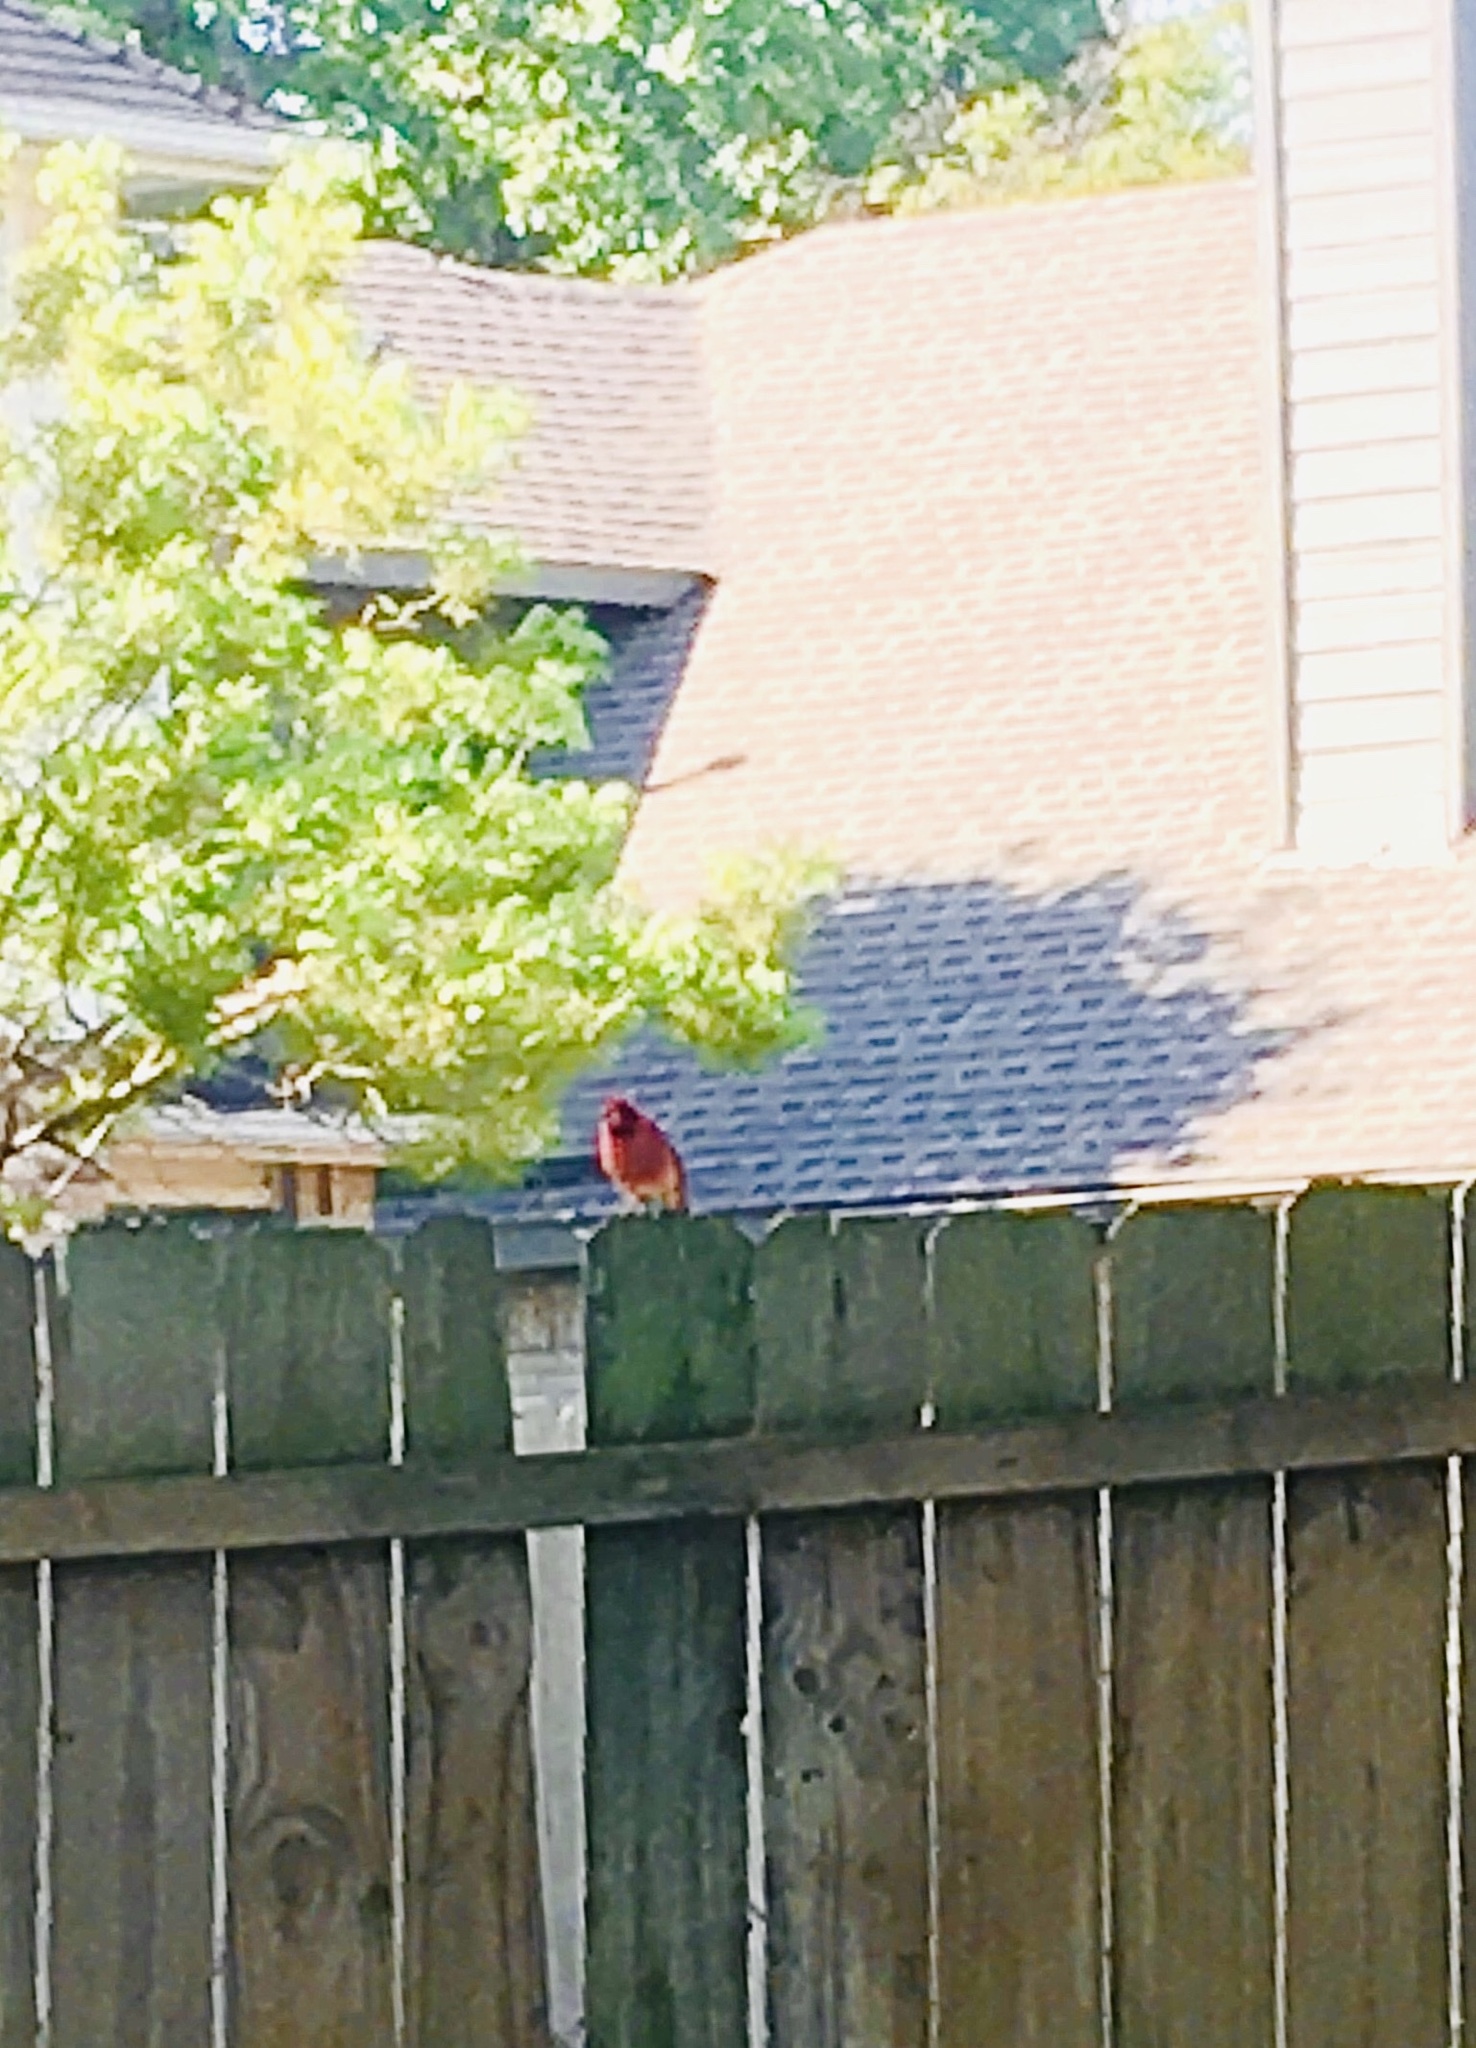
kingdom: Animalia
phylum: Chordata
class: Aves
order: Passeriformes
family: Cardinalidae
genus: Cardinalis
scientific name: Cardinalis cardinalis
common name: Northern cardinal
